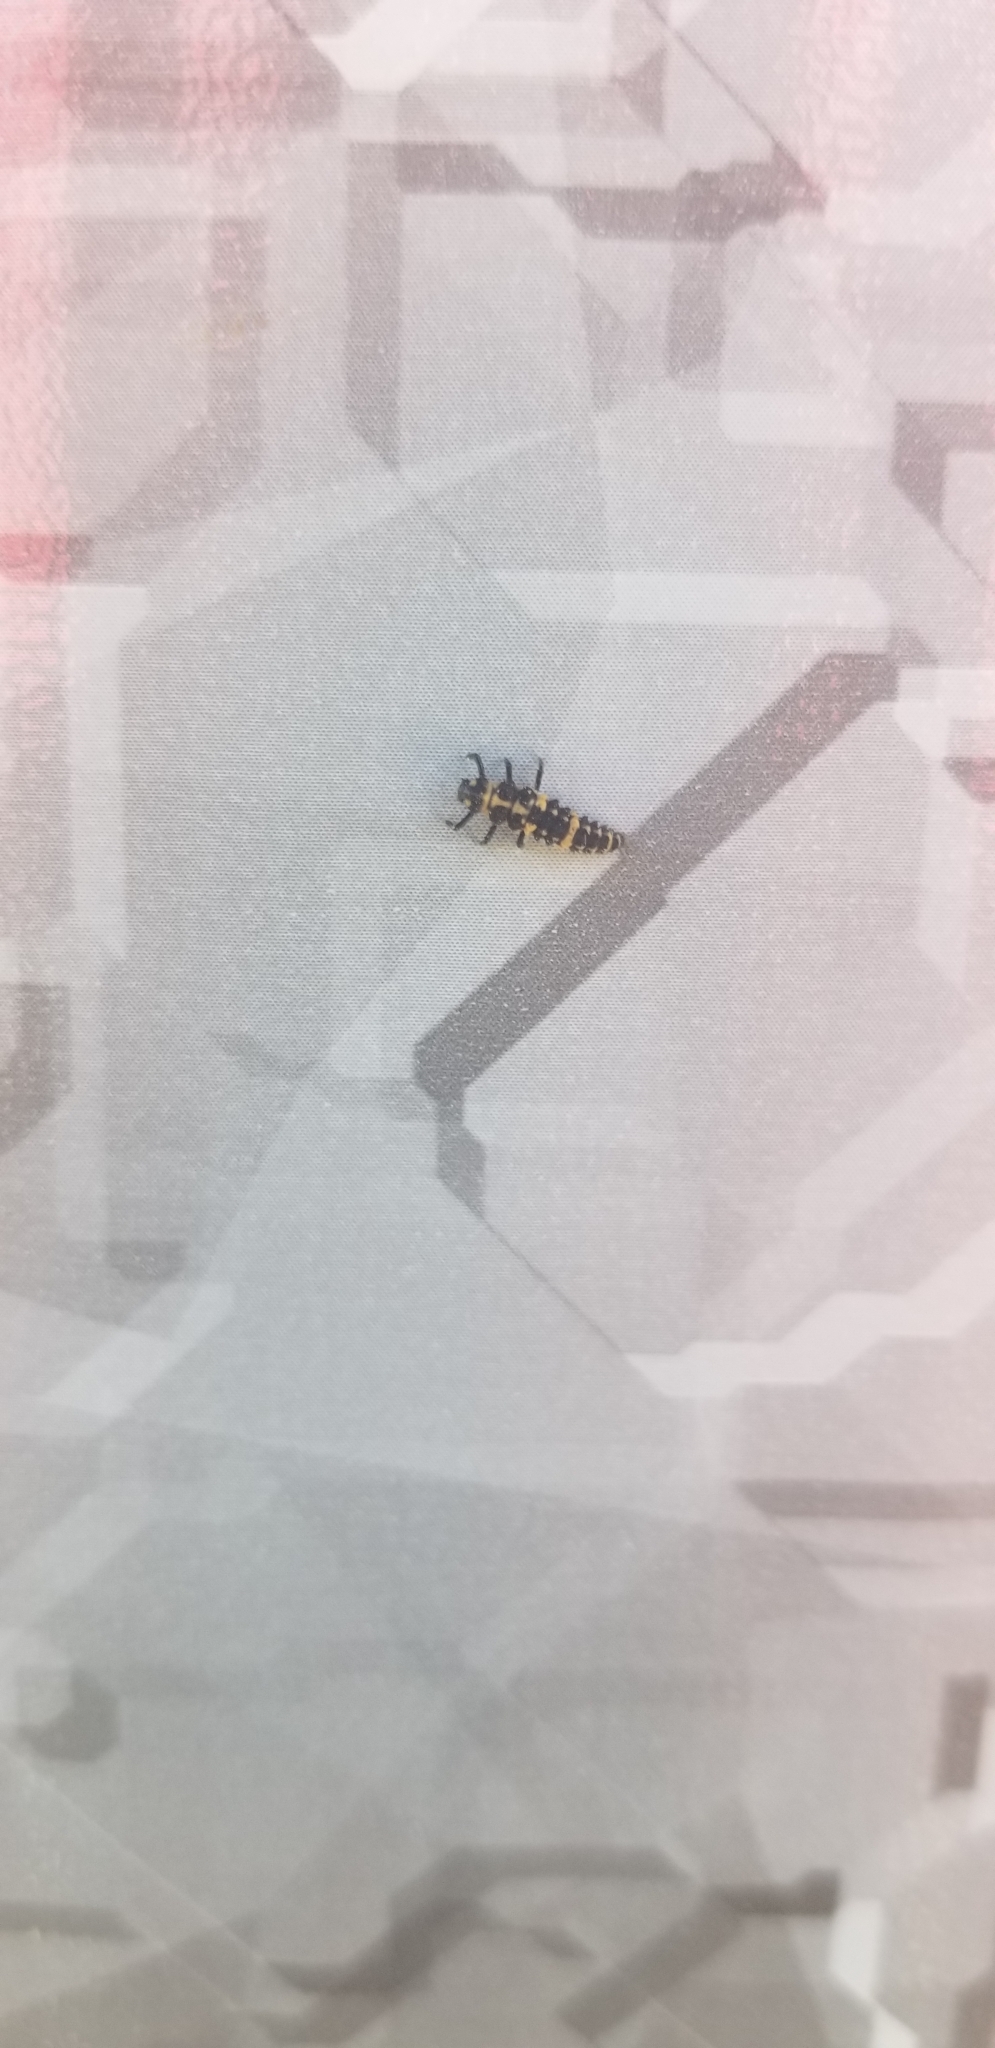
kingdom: Animalia
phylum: Arthropoda
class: Insecta
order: Coleoptera
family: Coccinellidae
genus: Coleomegilla
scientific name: Coleomegilla maculata
